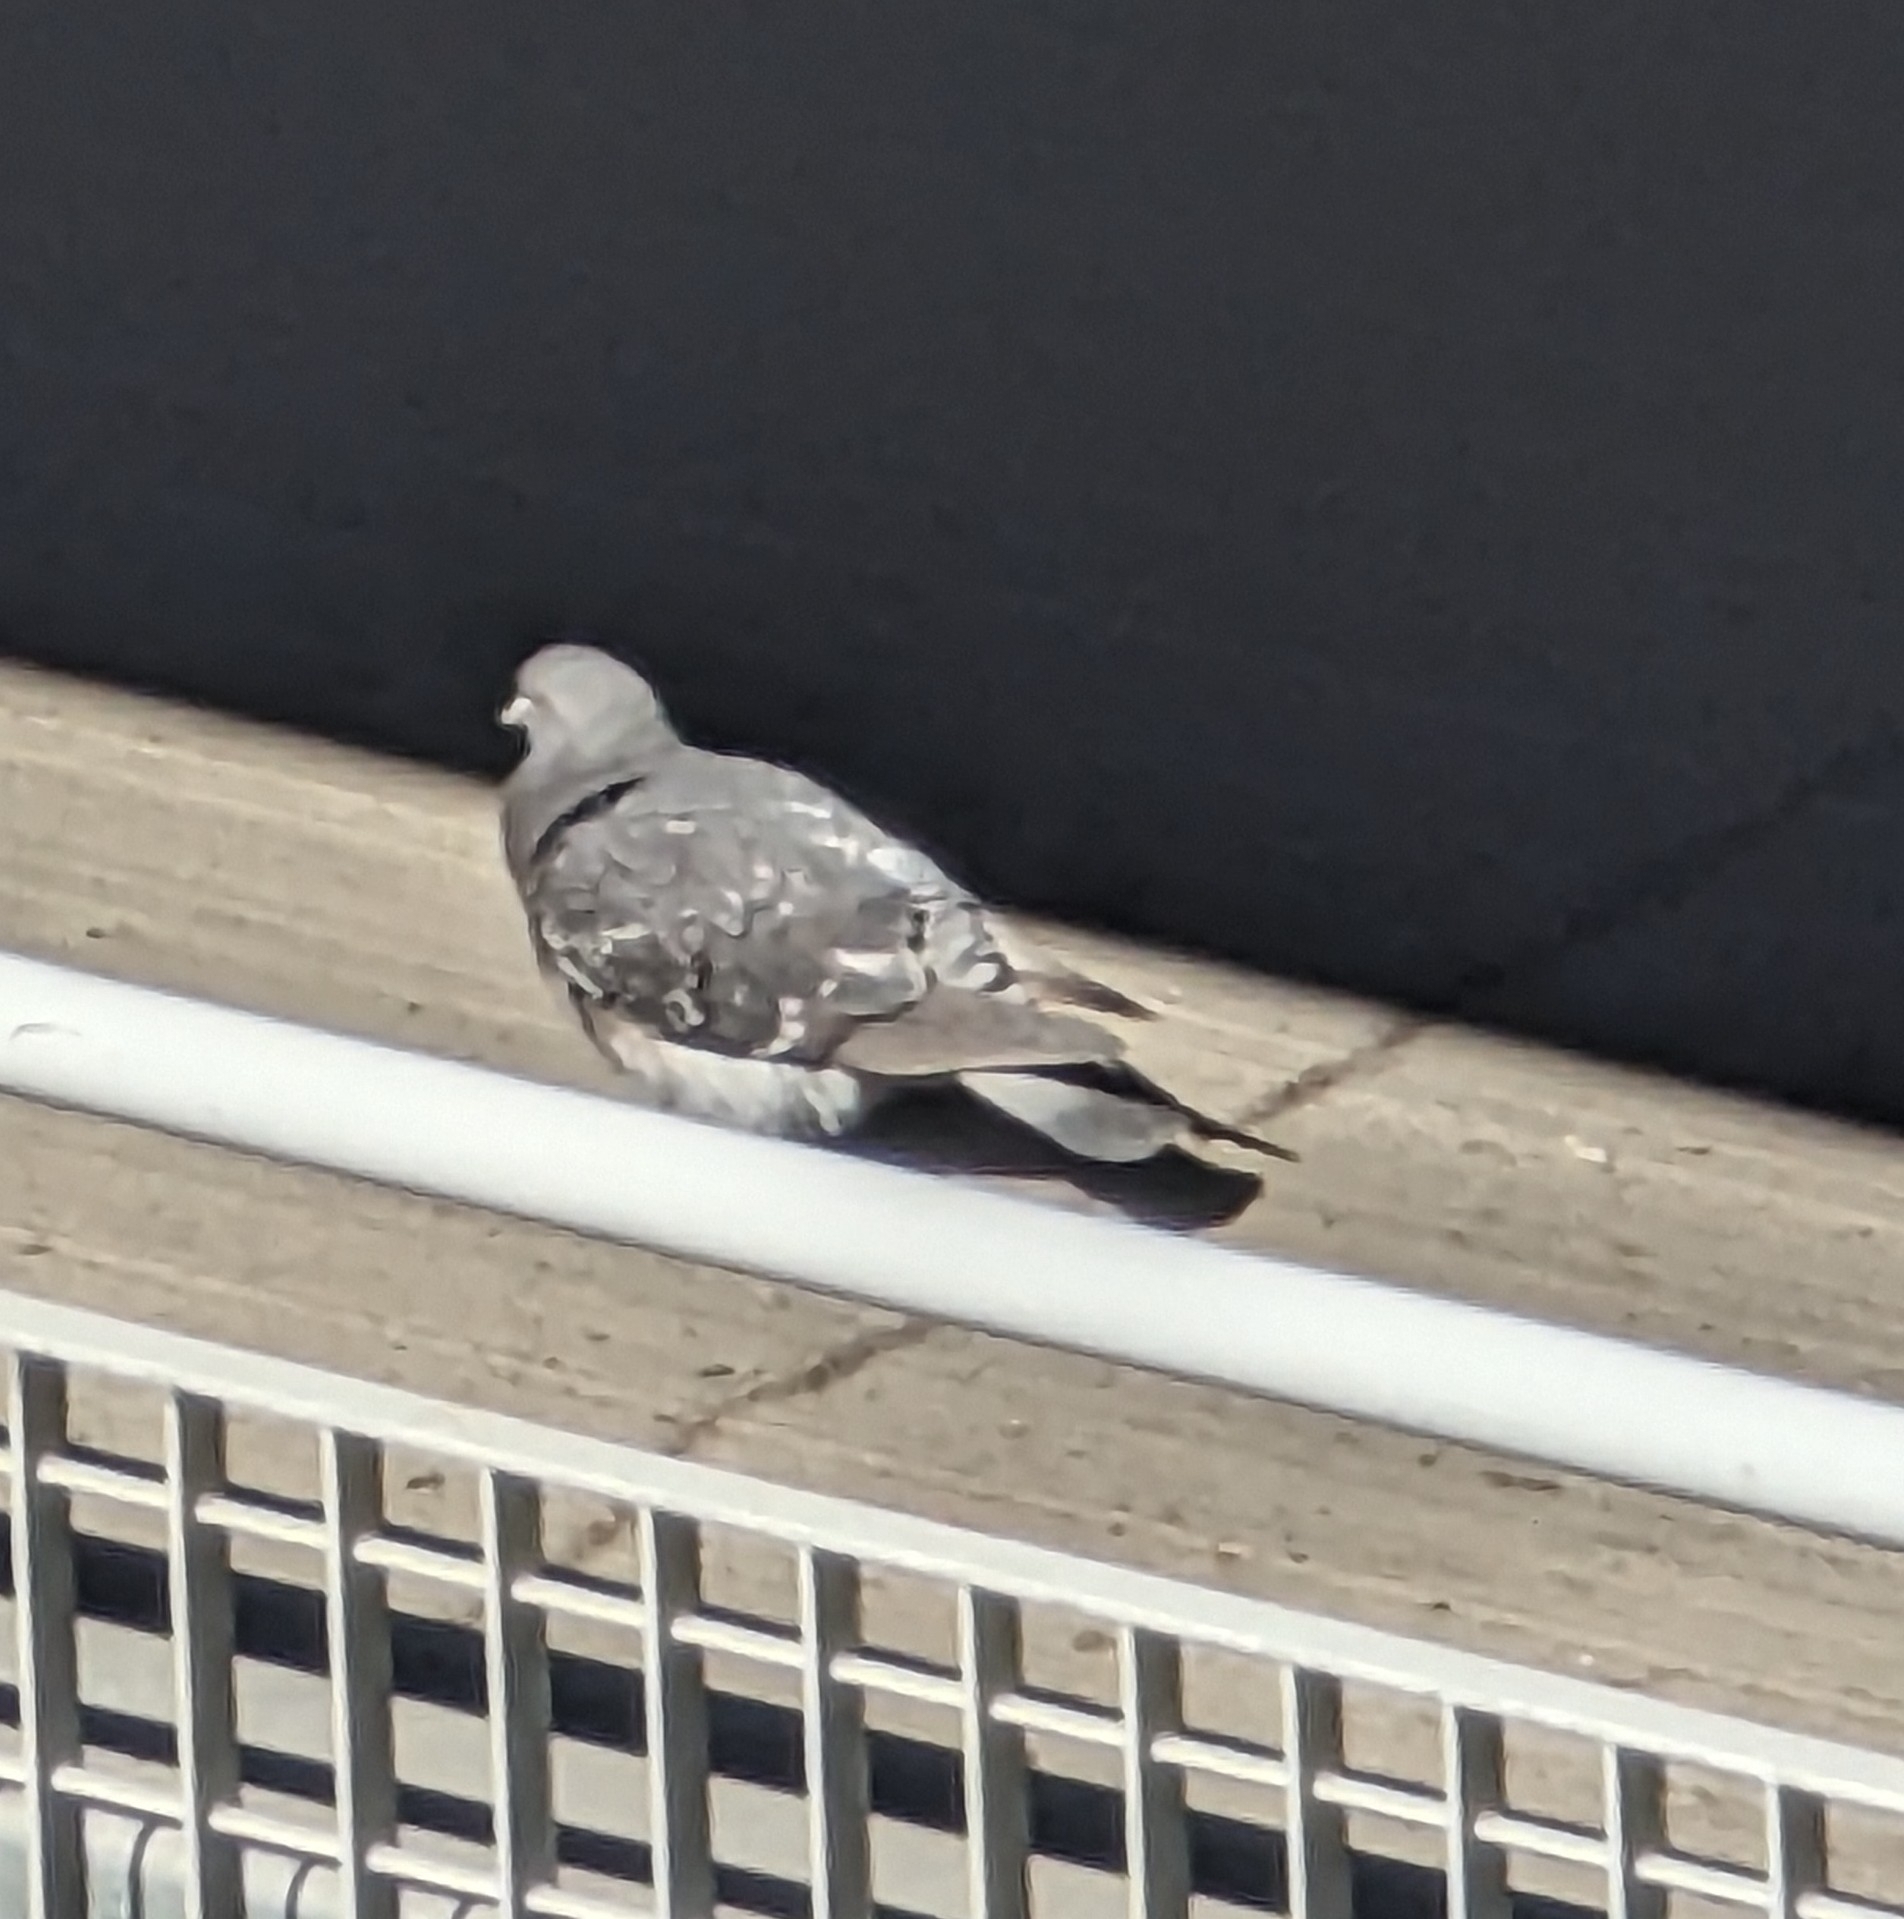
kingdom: Animalia
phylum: Chordata
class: Aves
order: Columbiformes
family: Columbidae
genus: Columba
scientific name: Columba livia
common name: Rock pigeon
